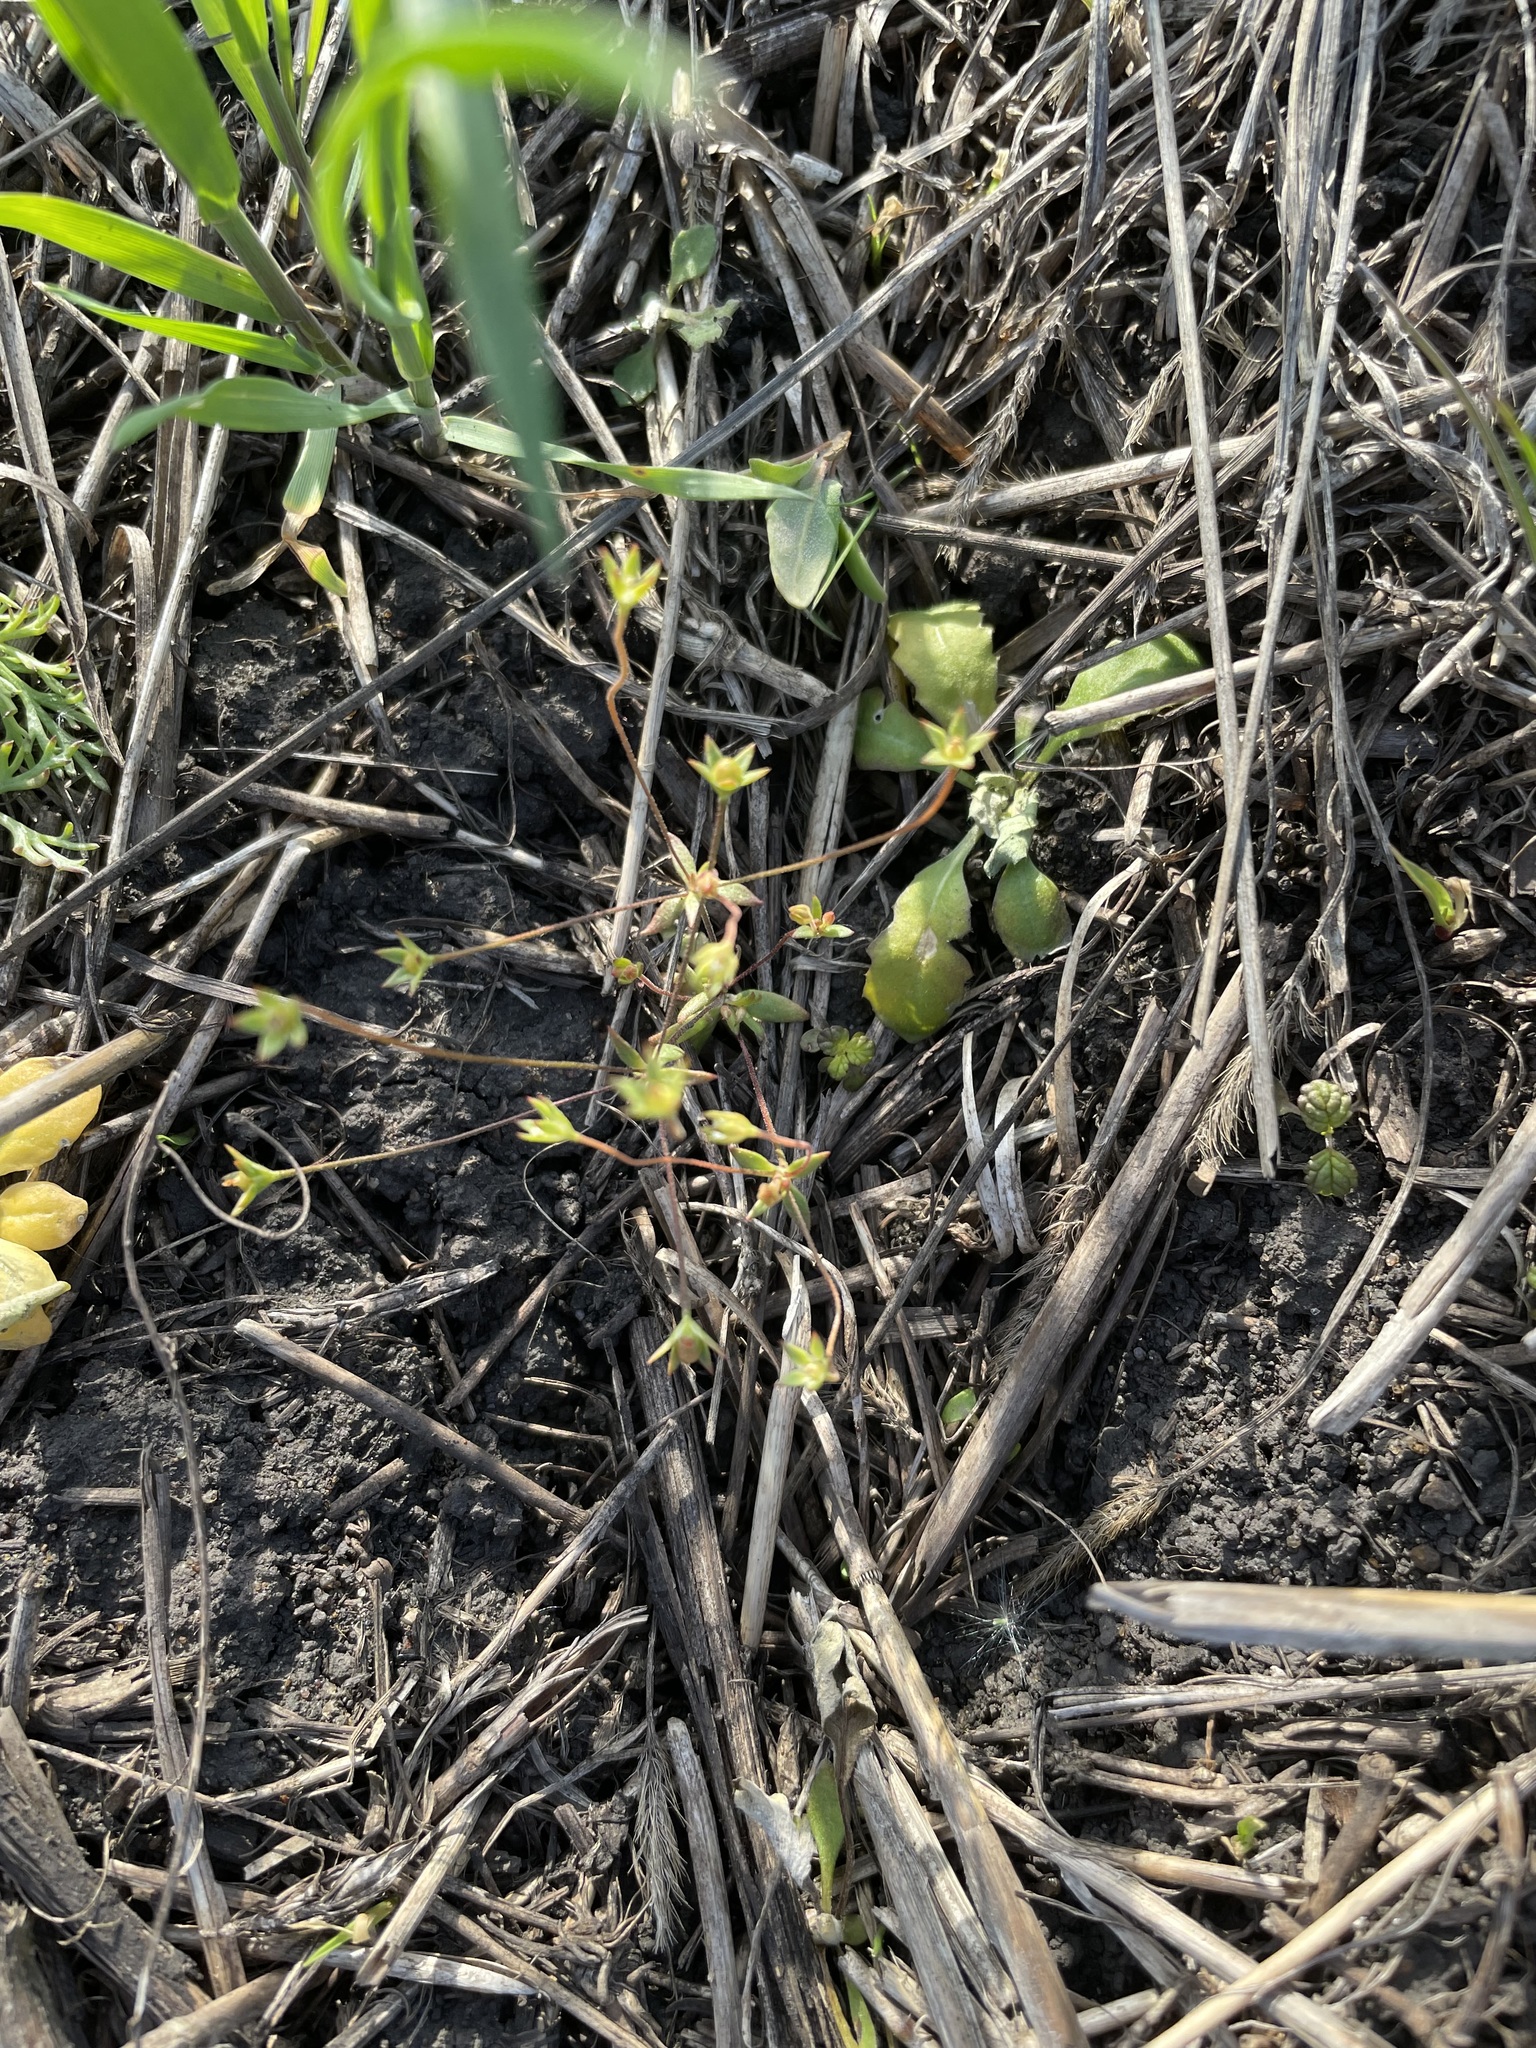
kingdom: Plantae
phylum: Tracheophyta
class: Magnoliopsida
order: Ericales
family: Primulaceae
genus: Androsace
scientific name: Androsace elongata
